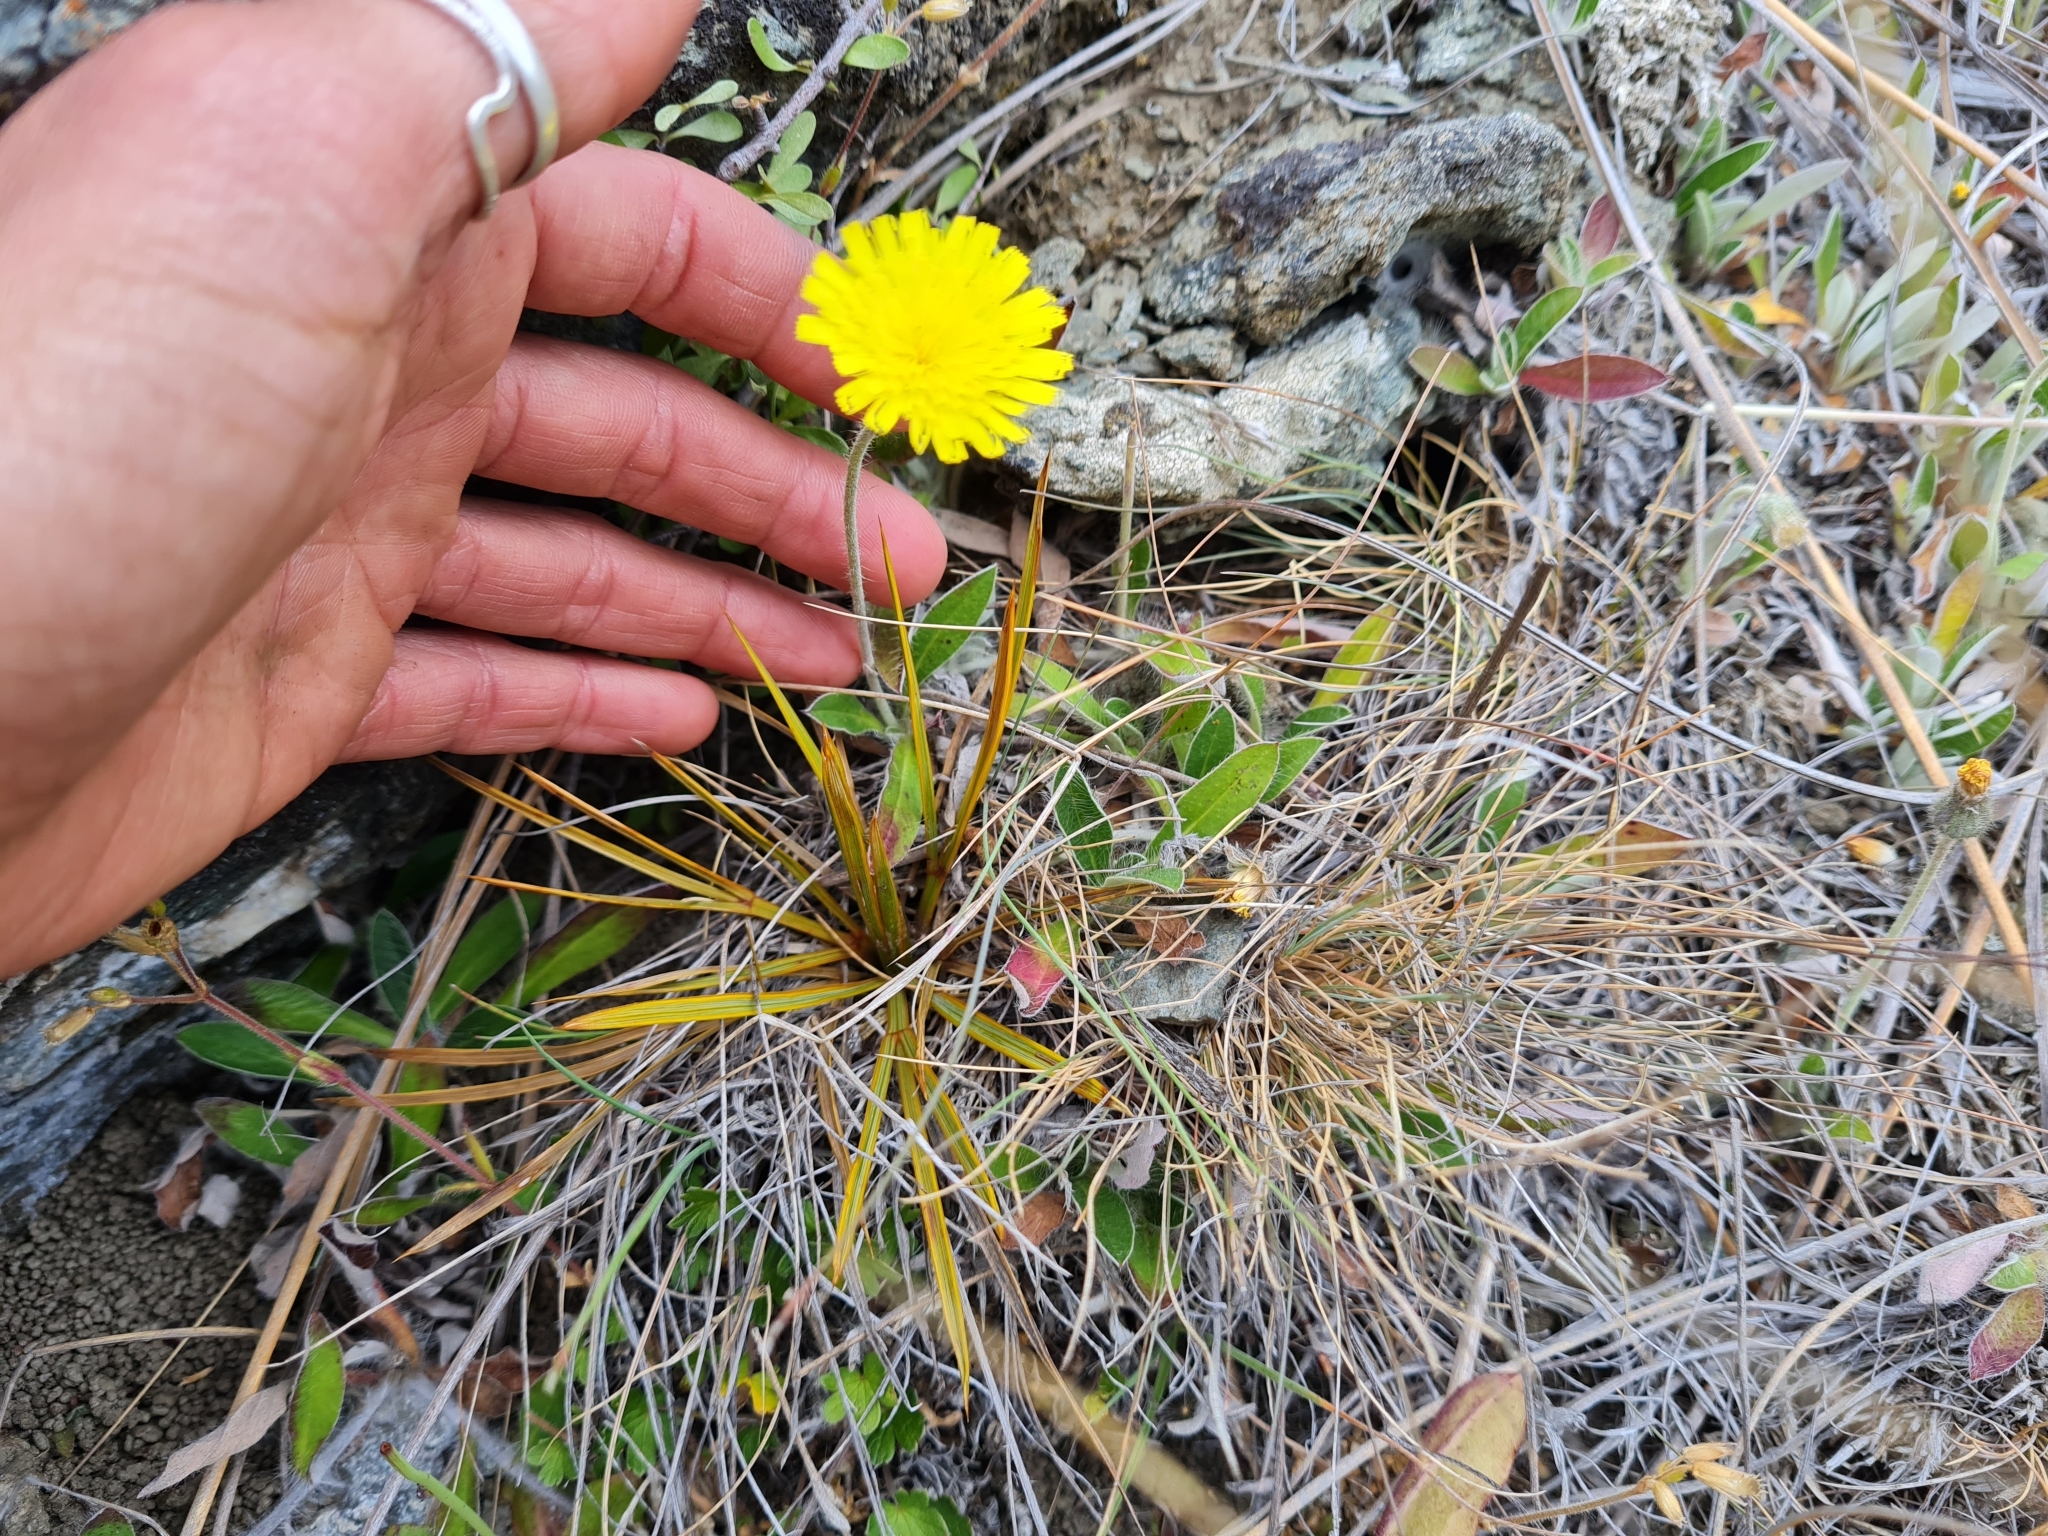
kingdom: Plantae
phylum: Tracheophyta
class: Magnoliopsida
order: Asterales
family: Asteraceae
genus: Pilosella
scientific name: Pilosella officinarum
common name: Mouse-ear hawkweed
